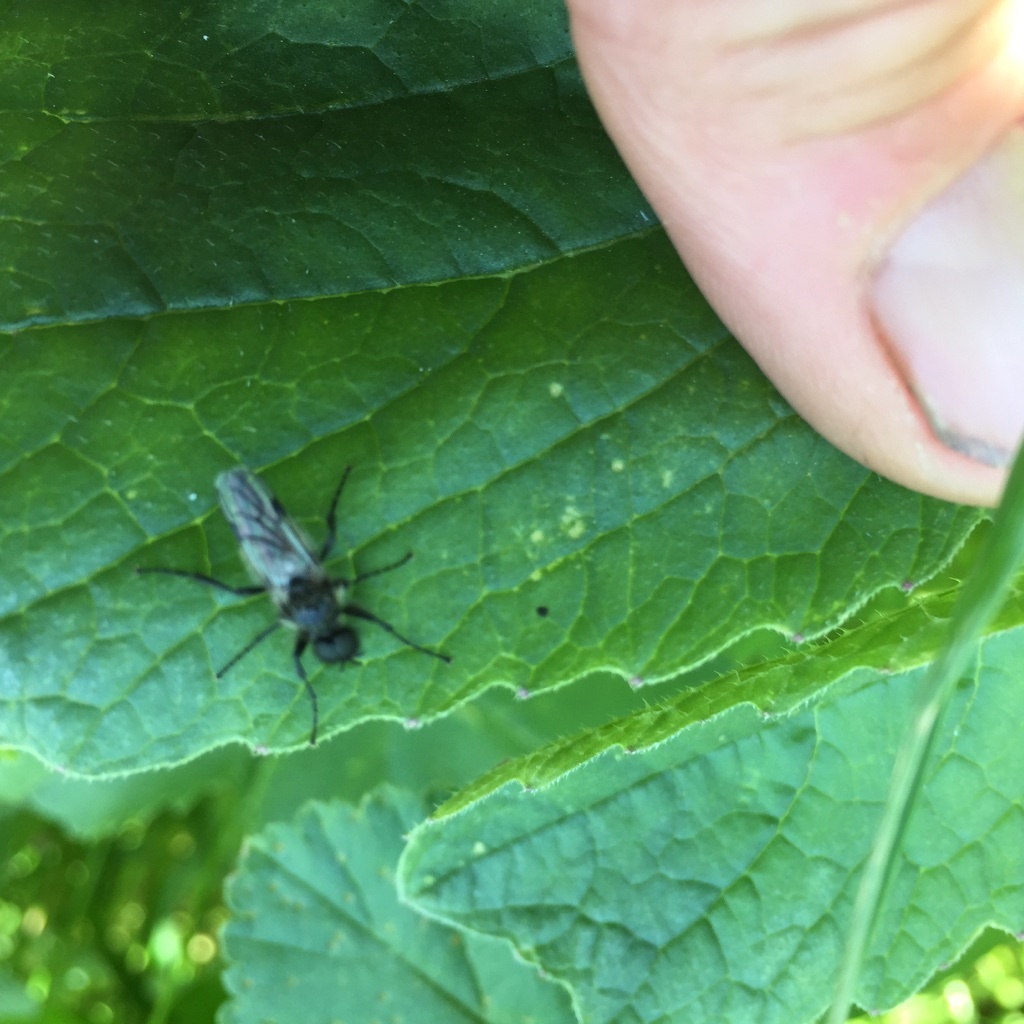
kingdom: Animalia
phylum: Arthropoda
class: Insecta
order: Diptera
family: Bibionidae
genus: Bibio
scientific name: Bibio albipennis
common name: White-winged march fly
